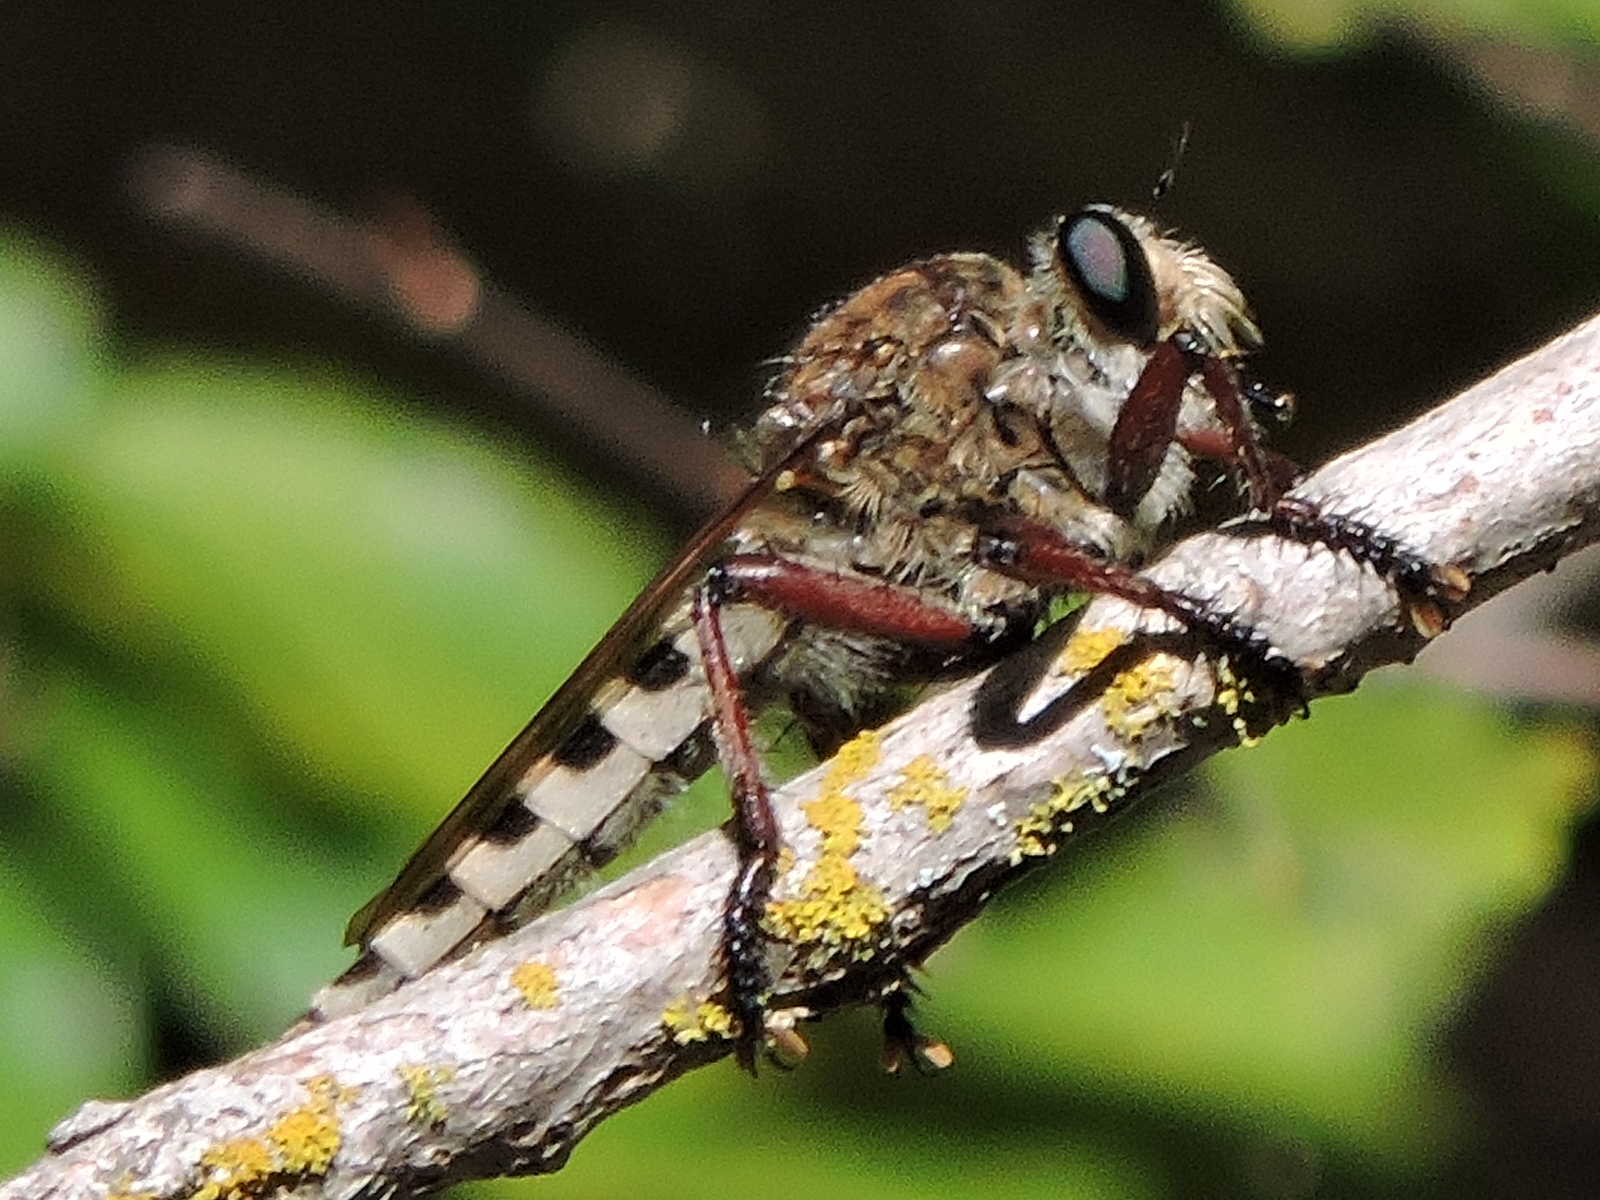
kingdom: Animalia
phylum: Arthropoda
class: Insecta
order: Diptera
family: Asilidae
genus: Promachus
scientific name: Promachus hinei
